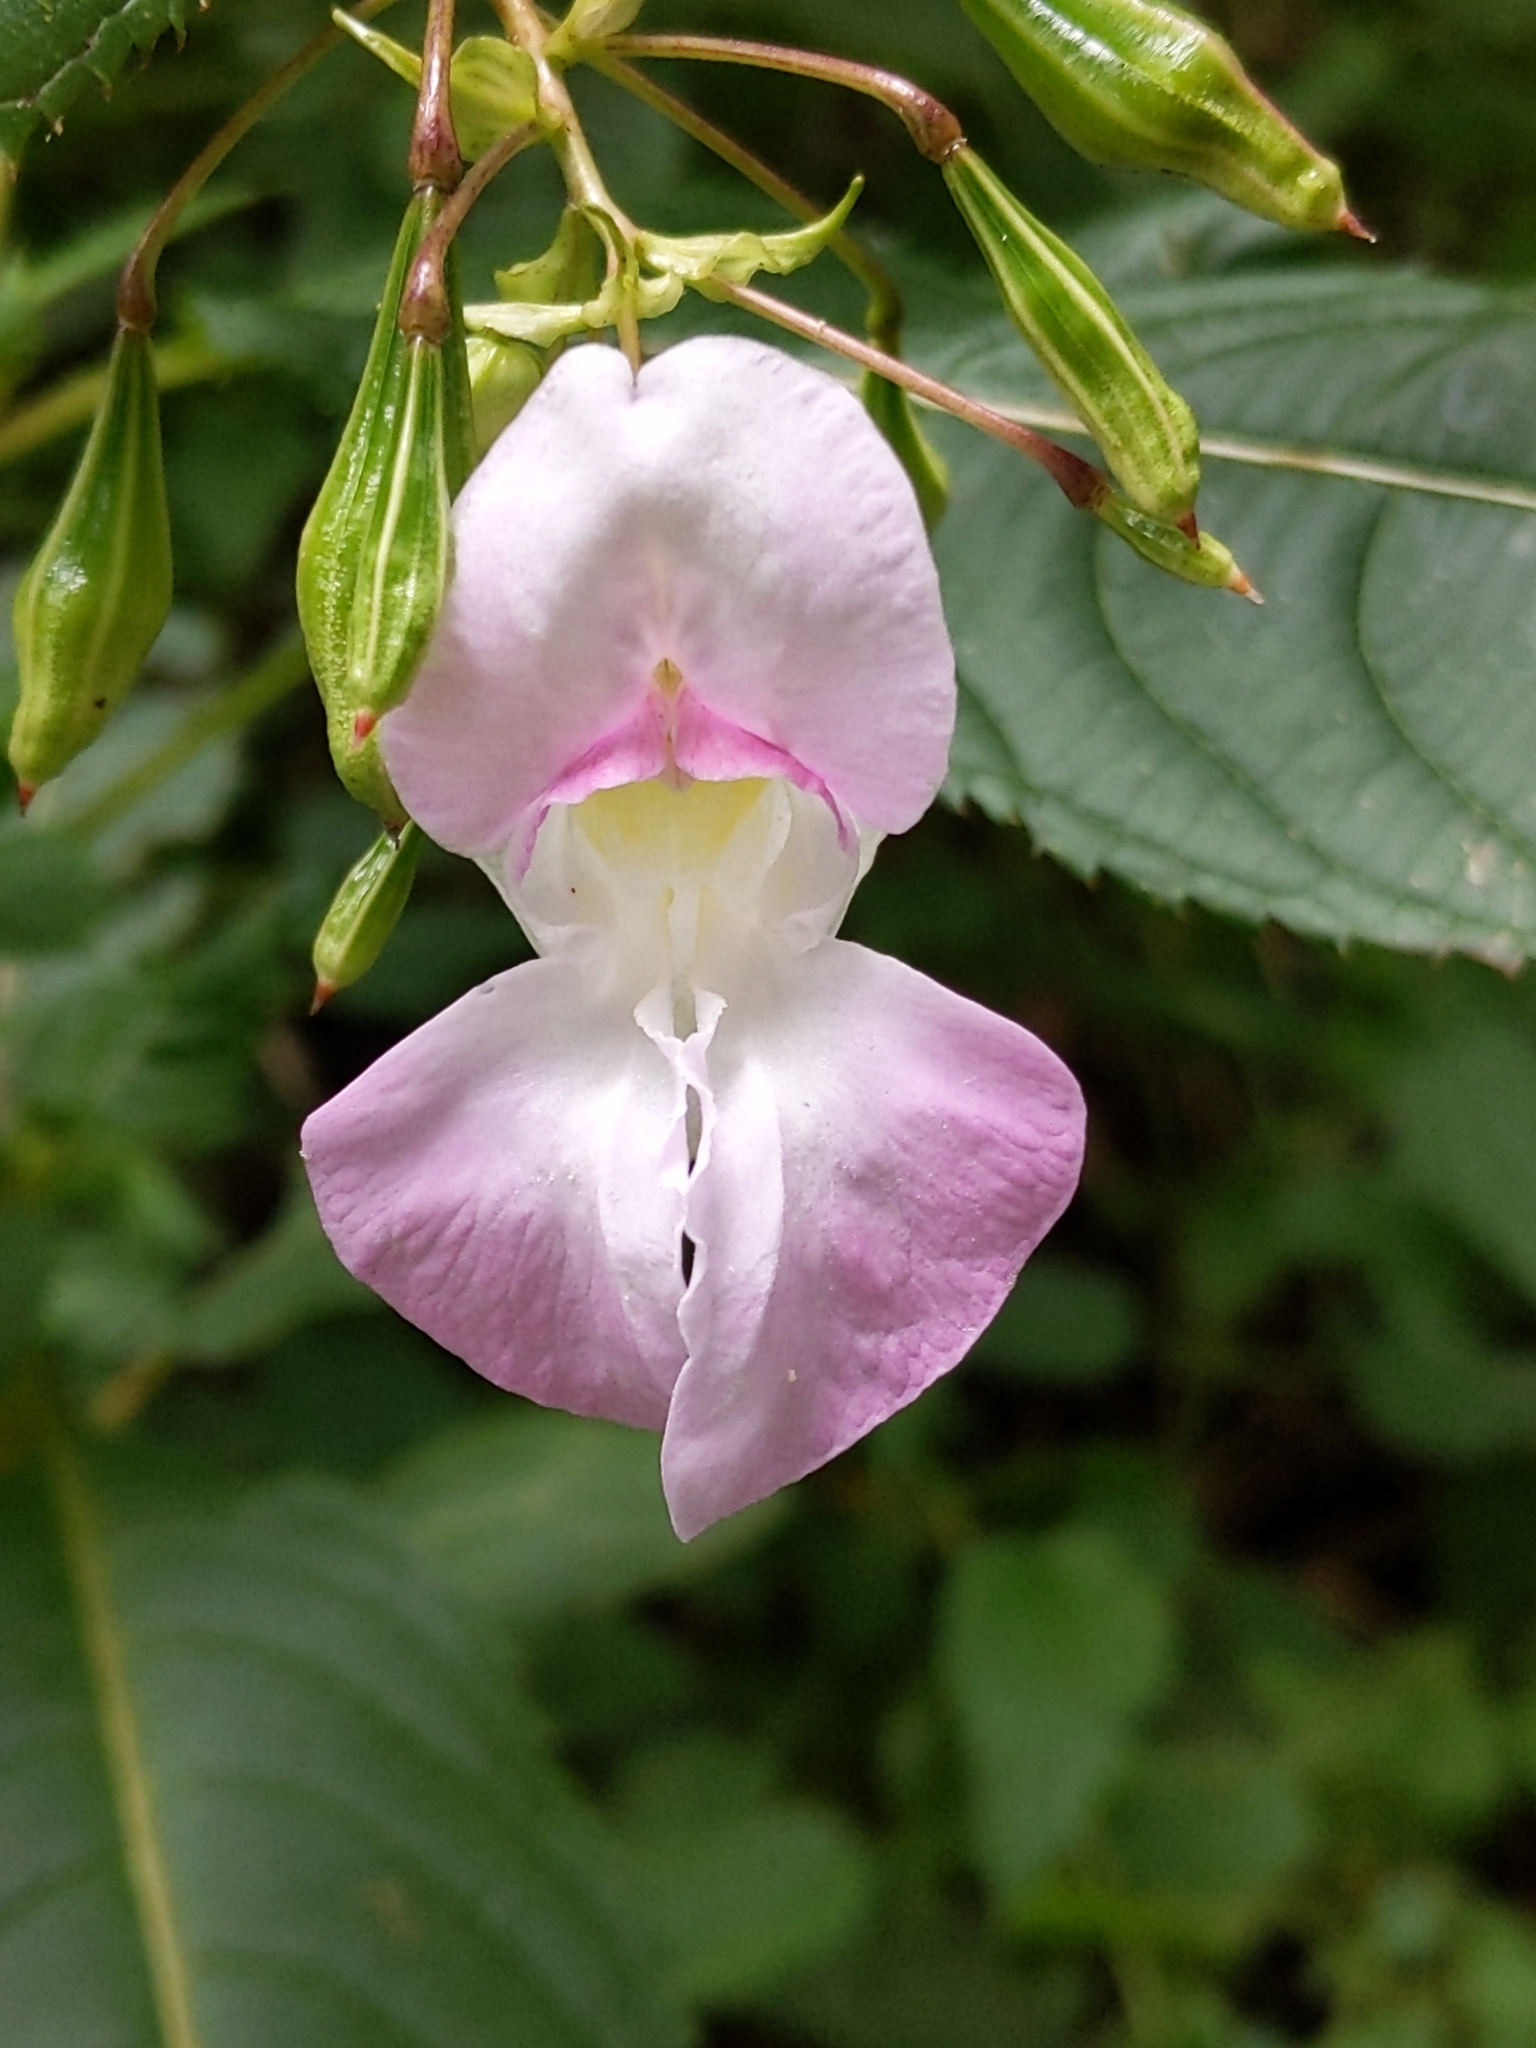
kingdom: Plantae
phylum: Tracheophyta
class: Magnoliopsida
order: Ericales
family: Balsaminaceae
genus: Impatiens
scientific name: Impatiens glandulifera
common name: Himalayan balsam
